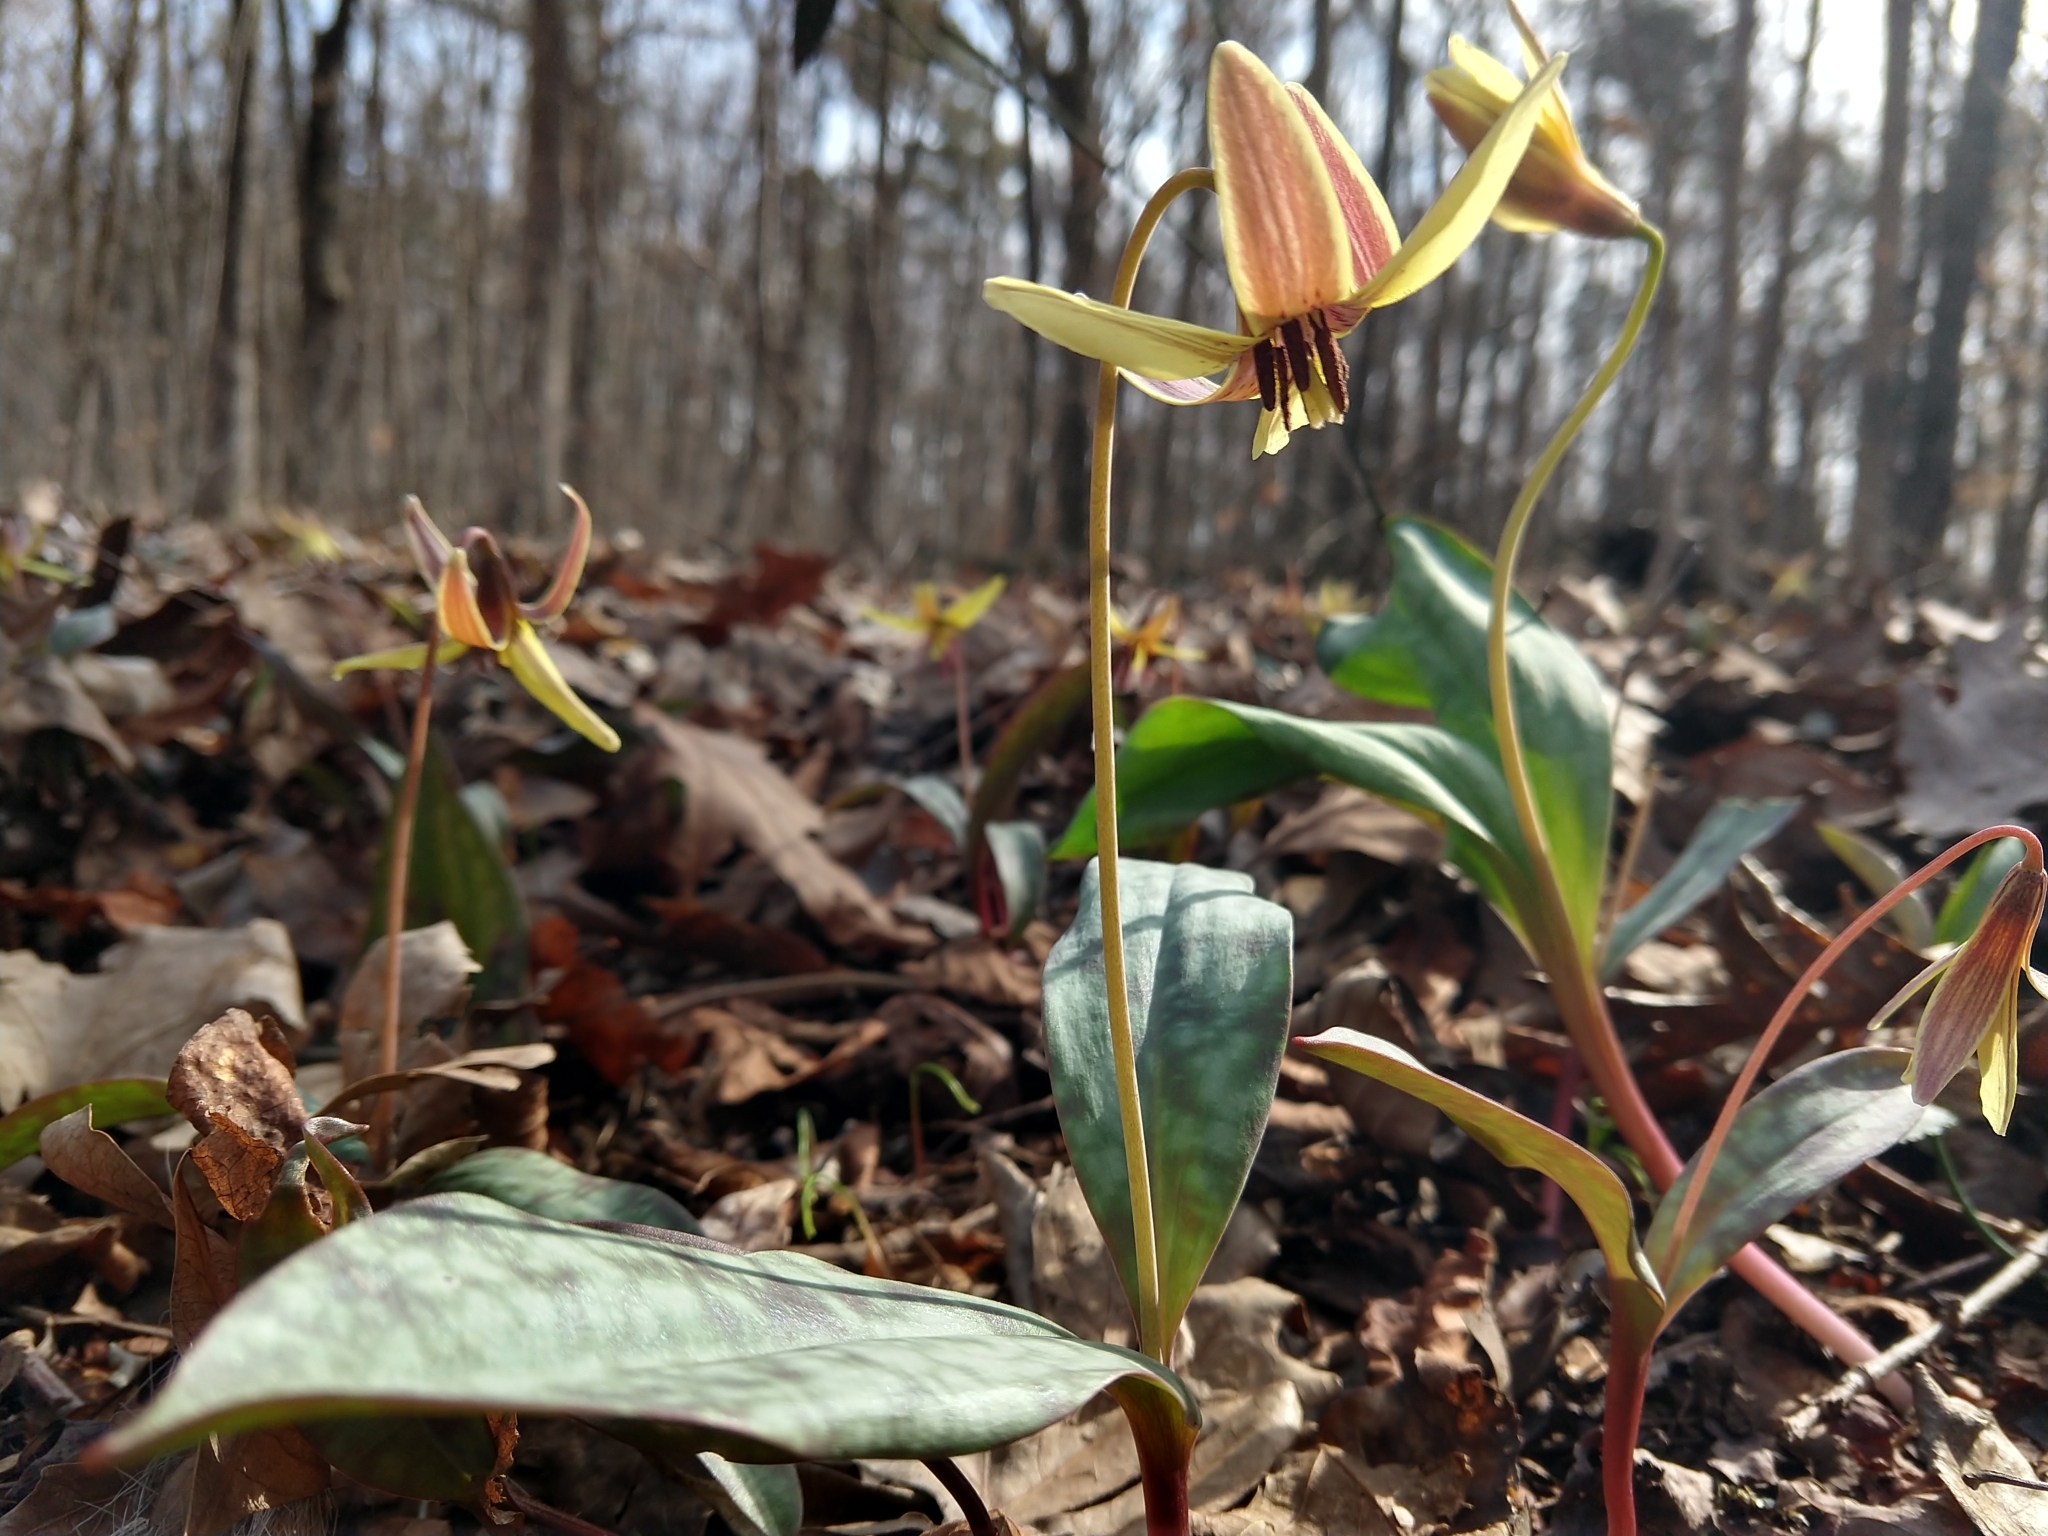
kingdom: Plantae
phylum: Tracheophyta
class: Liliopsida
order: Liliales
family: Liliaceae
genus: Erythronium
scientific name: Erythronium umbilicatum
